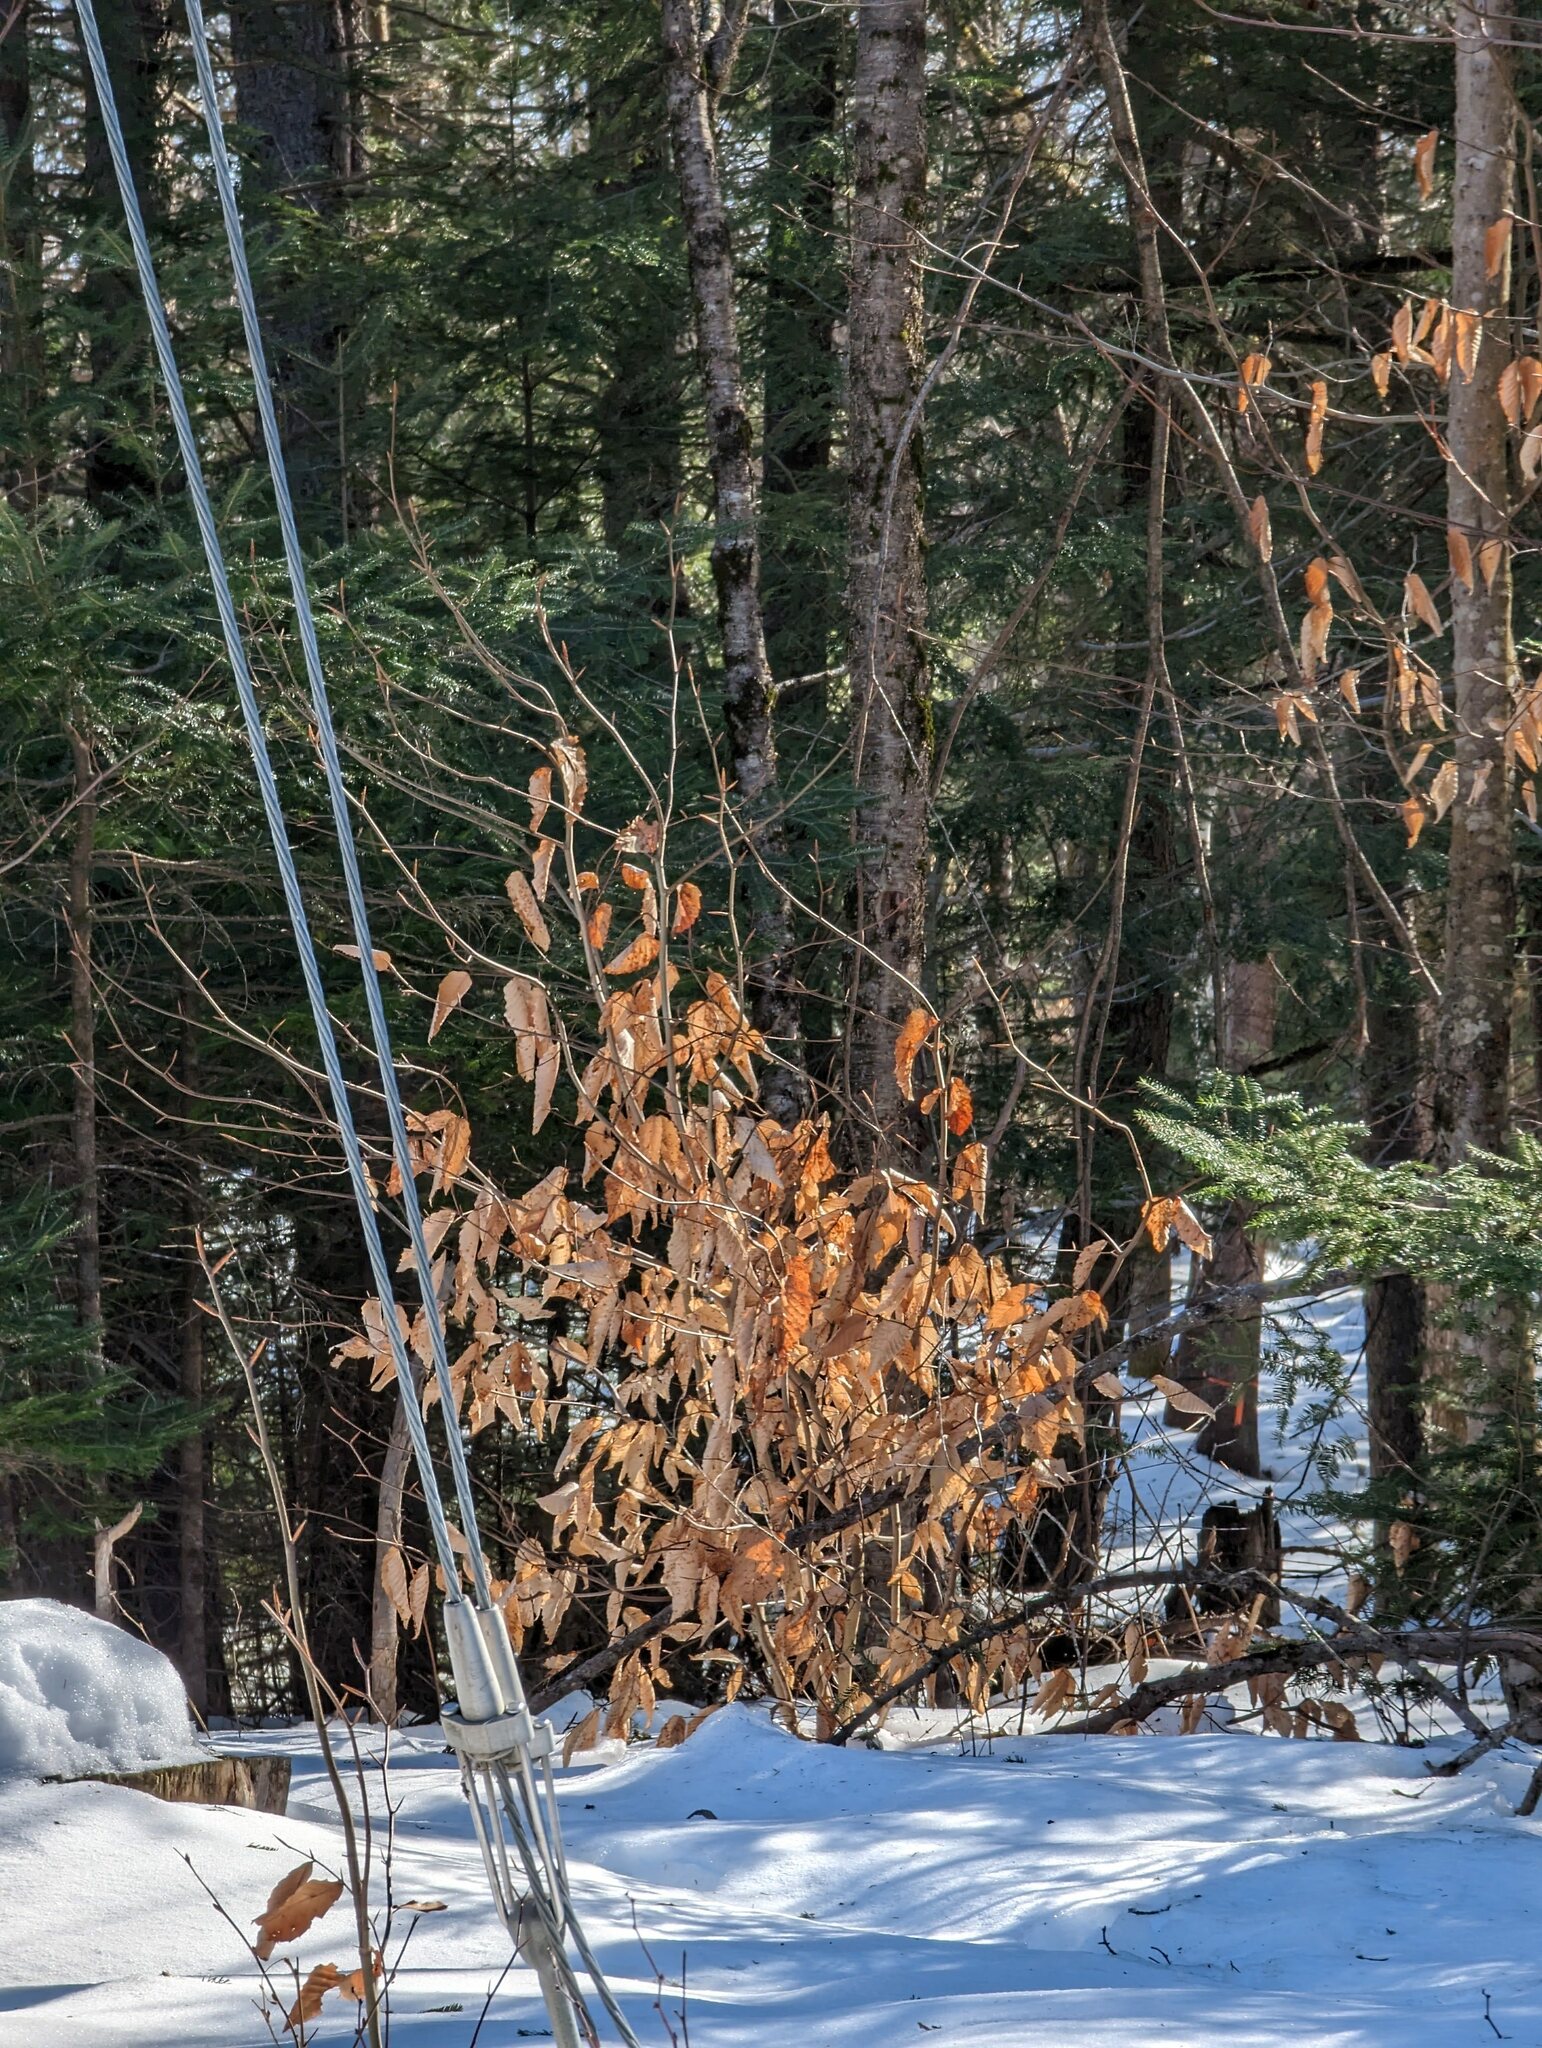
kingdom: Plantae
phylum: Tracheophyta
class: Magnoliopsida
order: Fagales
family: Fagaceae
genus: Fagus
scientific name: Fagus grandifolia
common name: American beech
